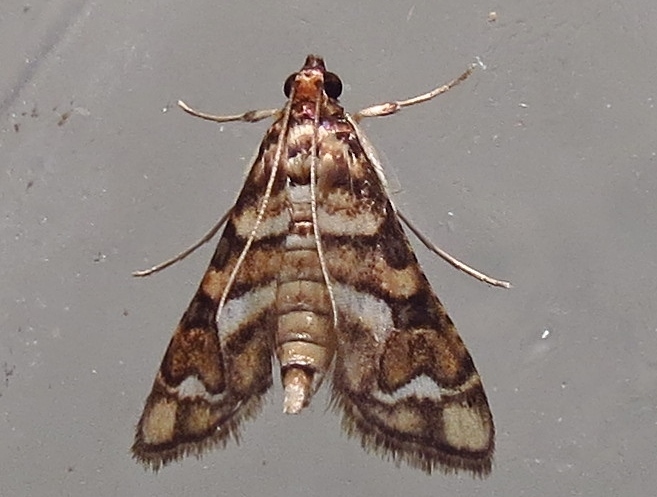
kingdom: Animalia
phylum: Arthropoda
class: Insecta
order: Lepidoptera
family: Crambidae
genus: Hileithia
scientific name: Hileithia magualis
